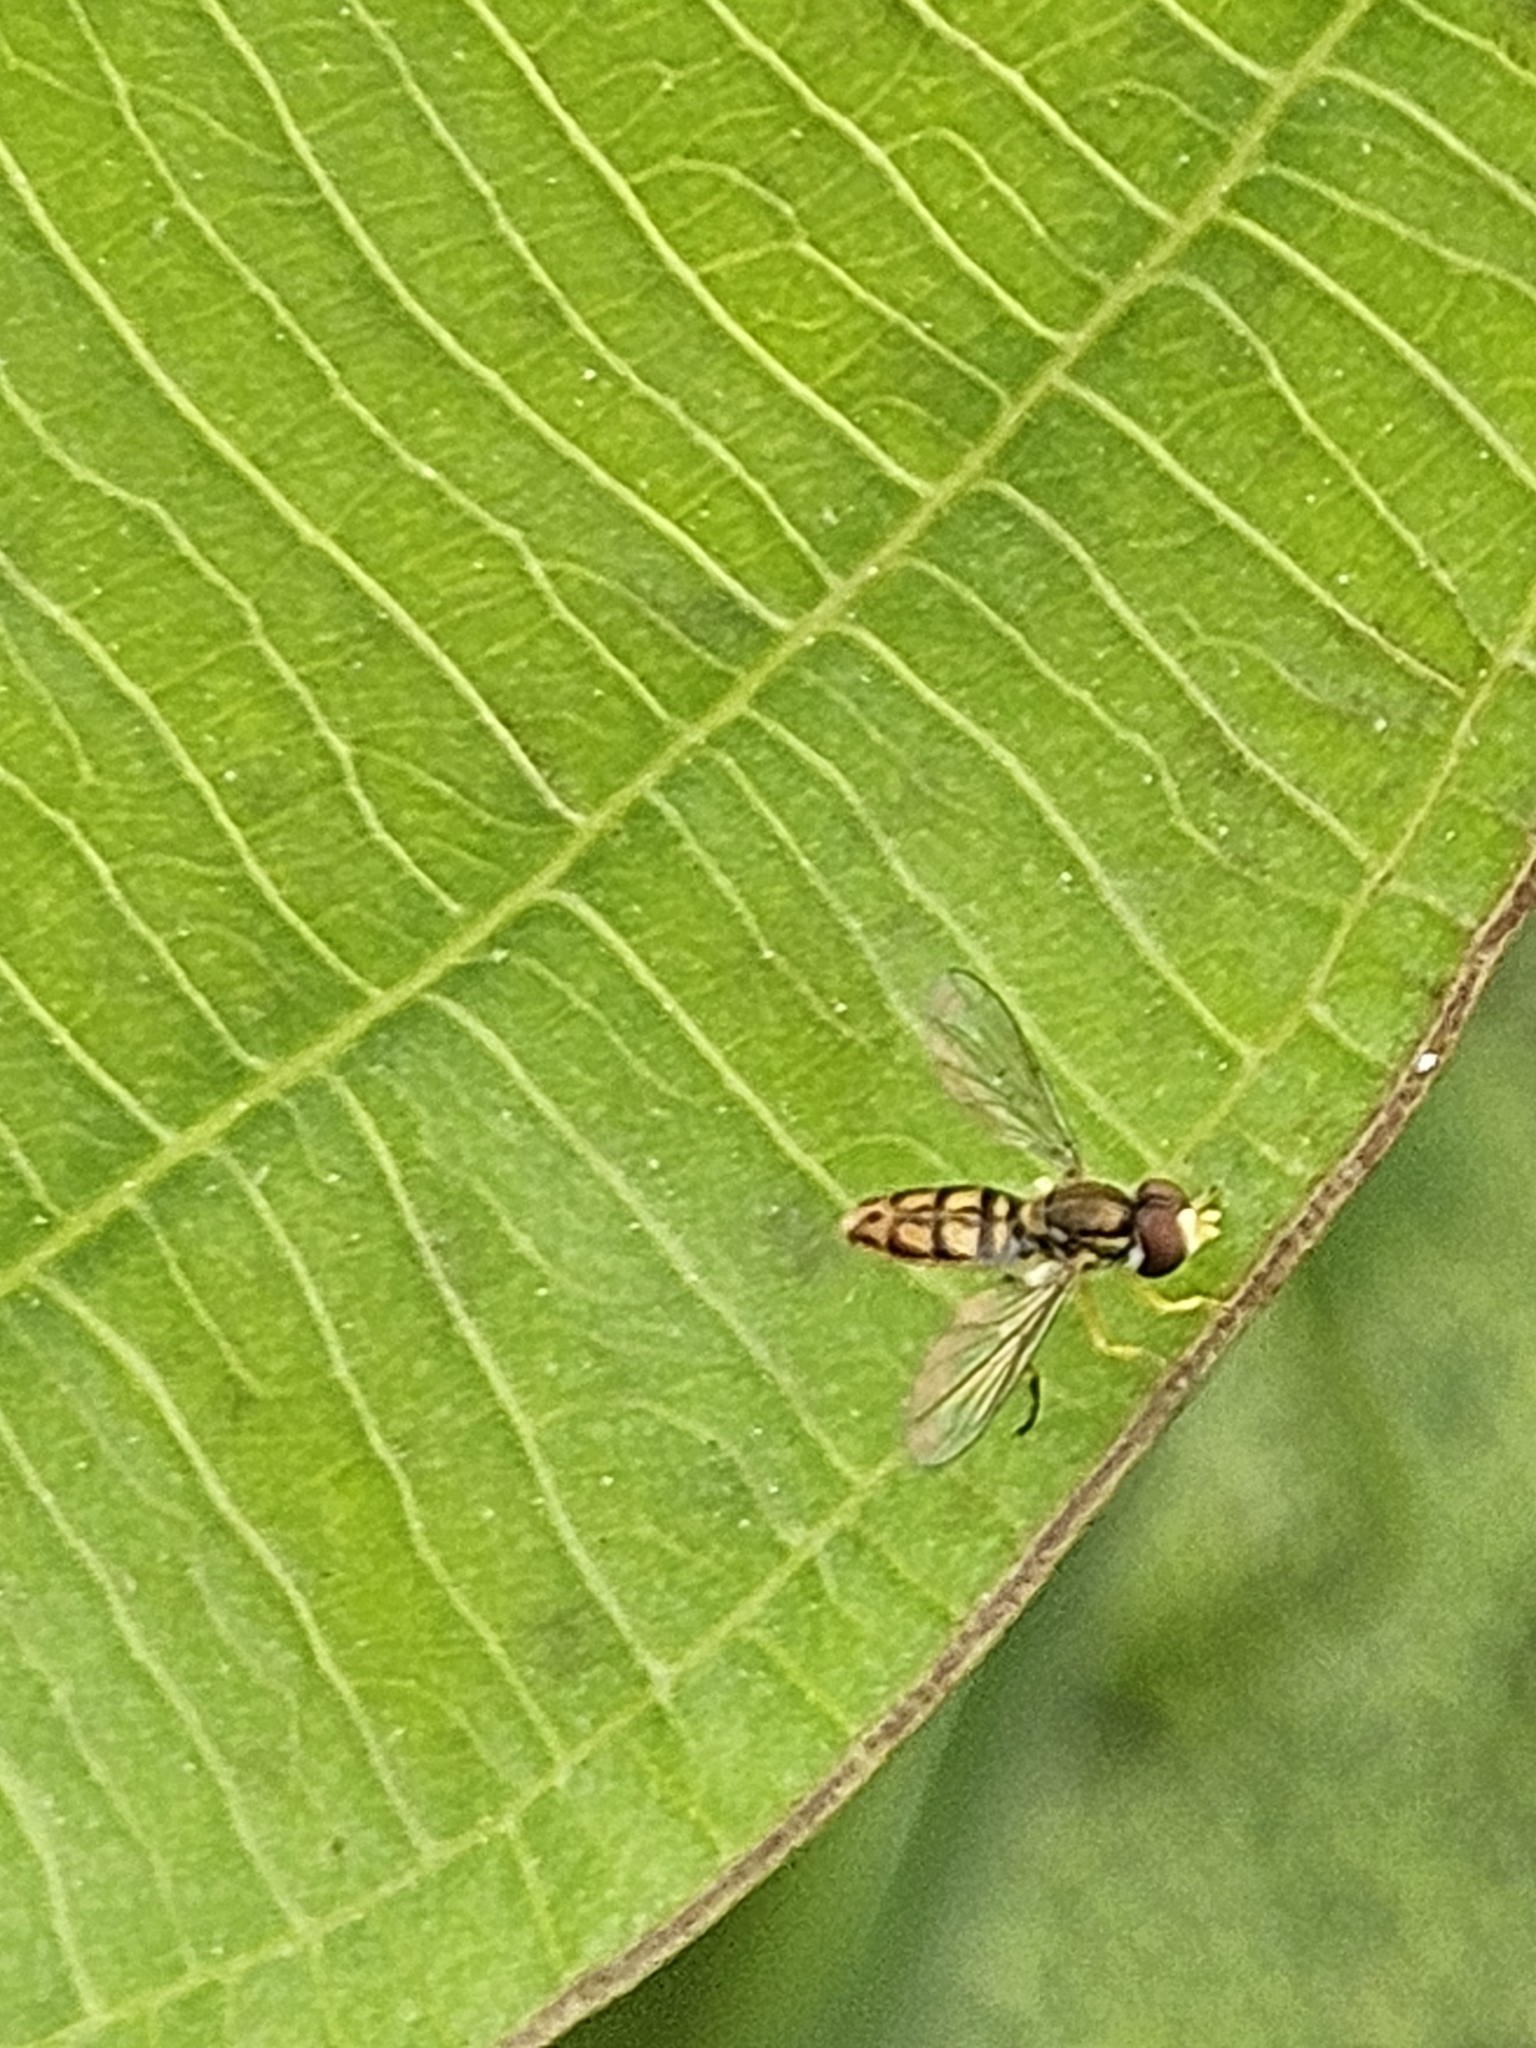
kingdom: Animalia
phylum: Arthropoda
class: Insecta
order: Diptera
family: Syrphidae
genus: Toxomerus
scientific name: Toxomerus marginatus
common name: Syrphid fly
